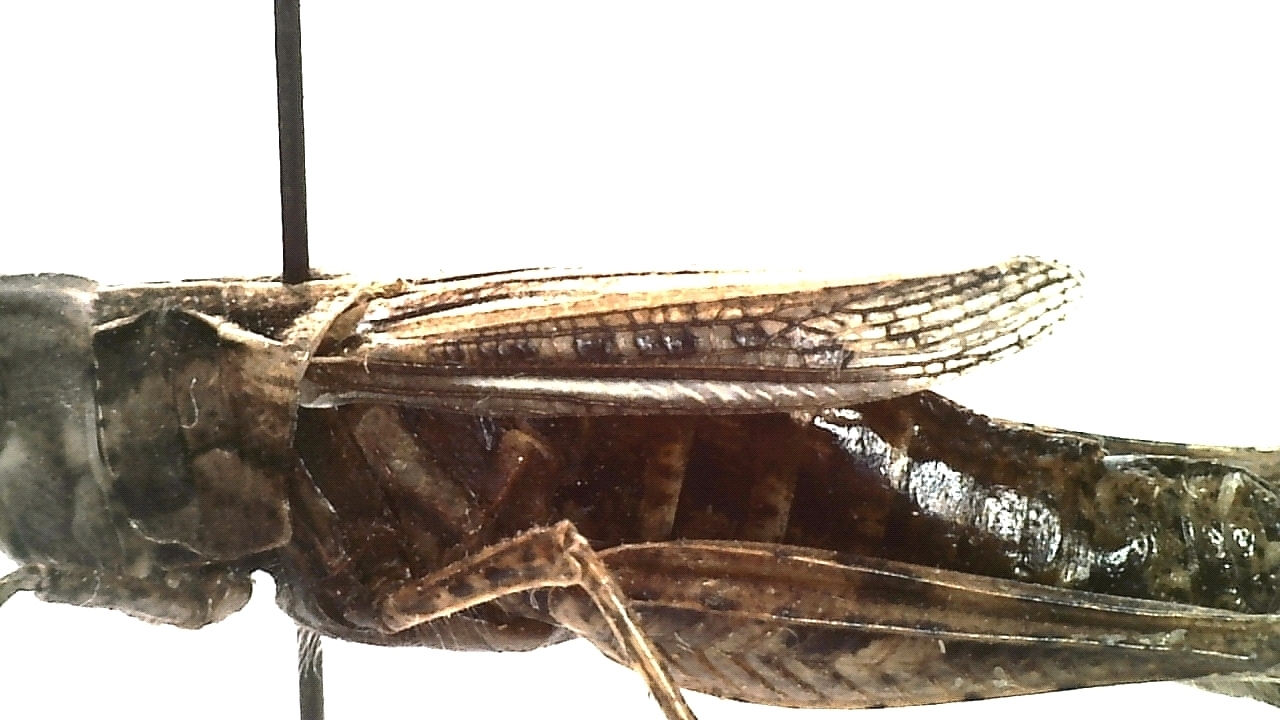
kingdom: Animalia
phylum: Arthropoda
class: Insecta
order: Orthoptera
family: Acrididae
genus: Chorthippus
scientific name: Chorthippus dubius
